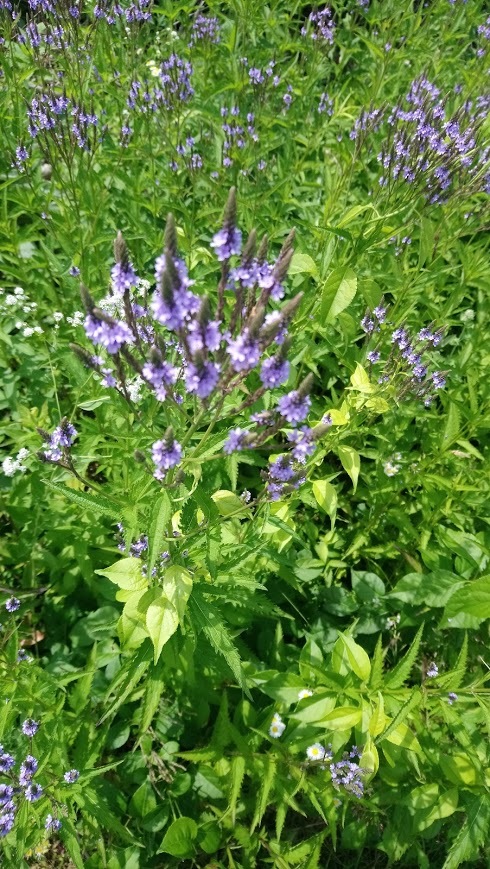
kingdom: Plantae
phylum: Tracheophyta
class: Magnoliopsida
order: Lamiales
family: Verbenaceae
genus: Verbena
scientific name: Verbena hastata
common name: American blue vervain
